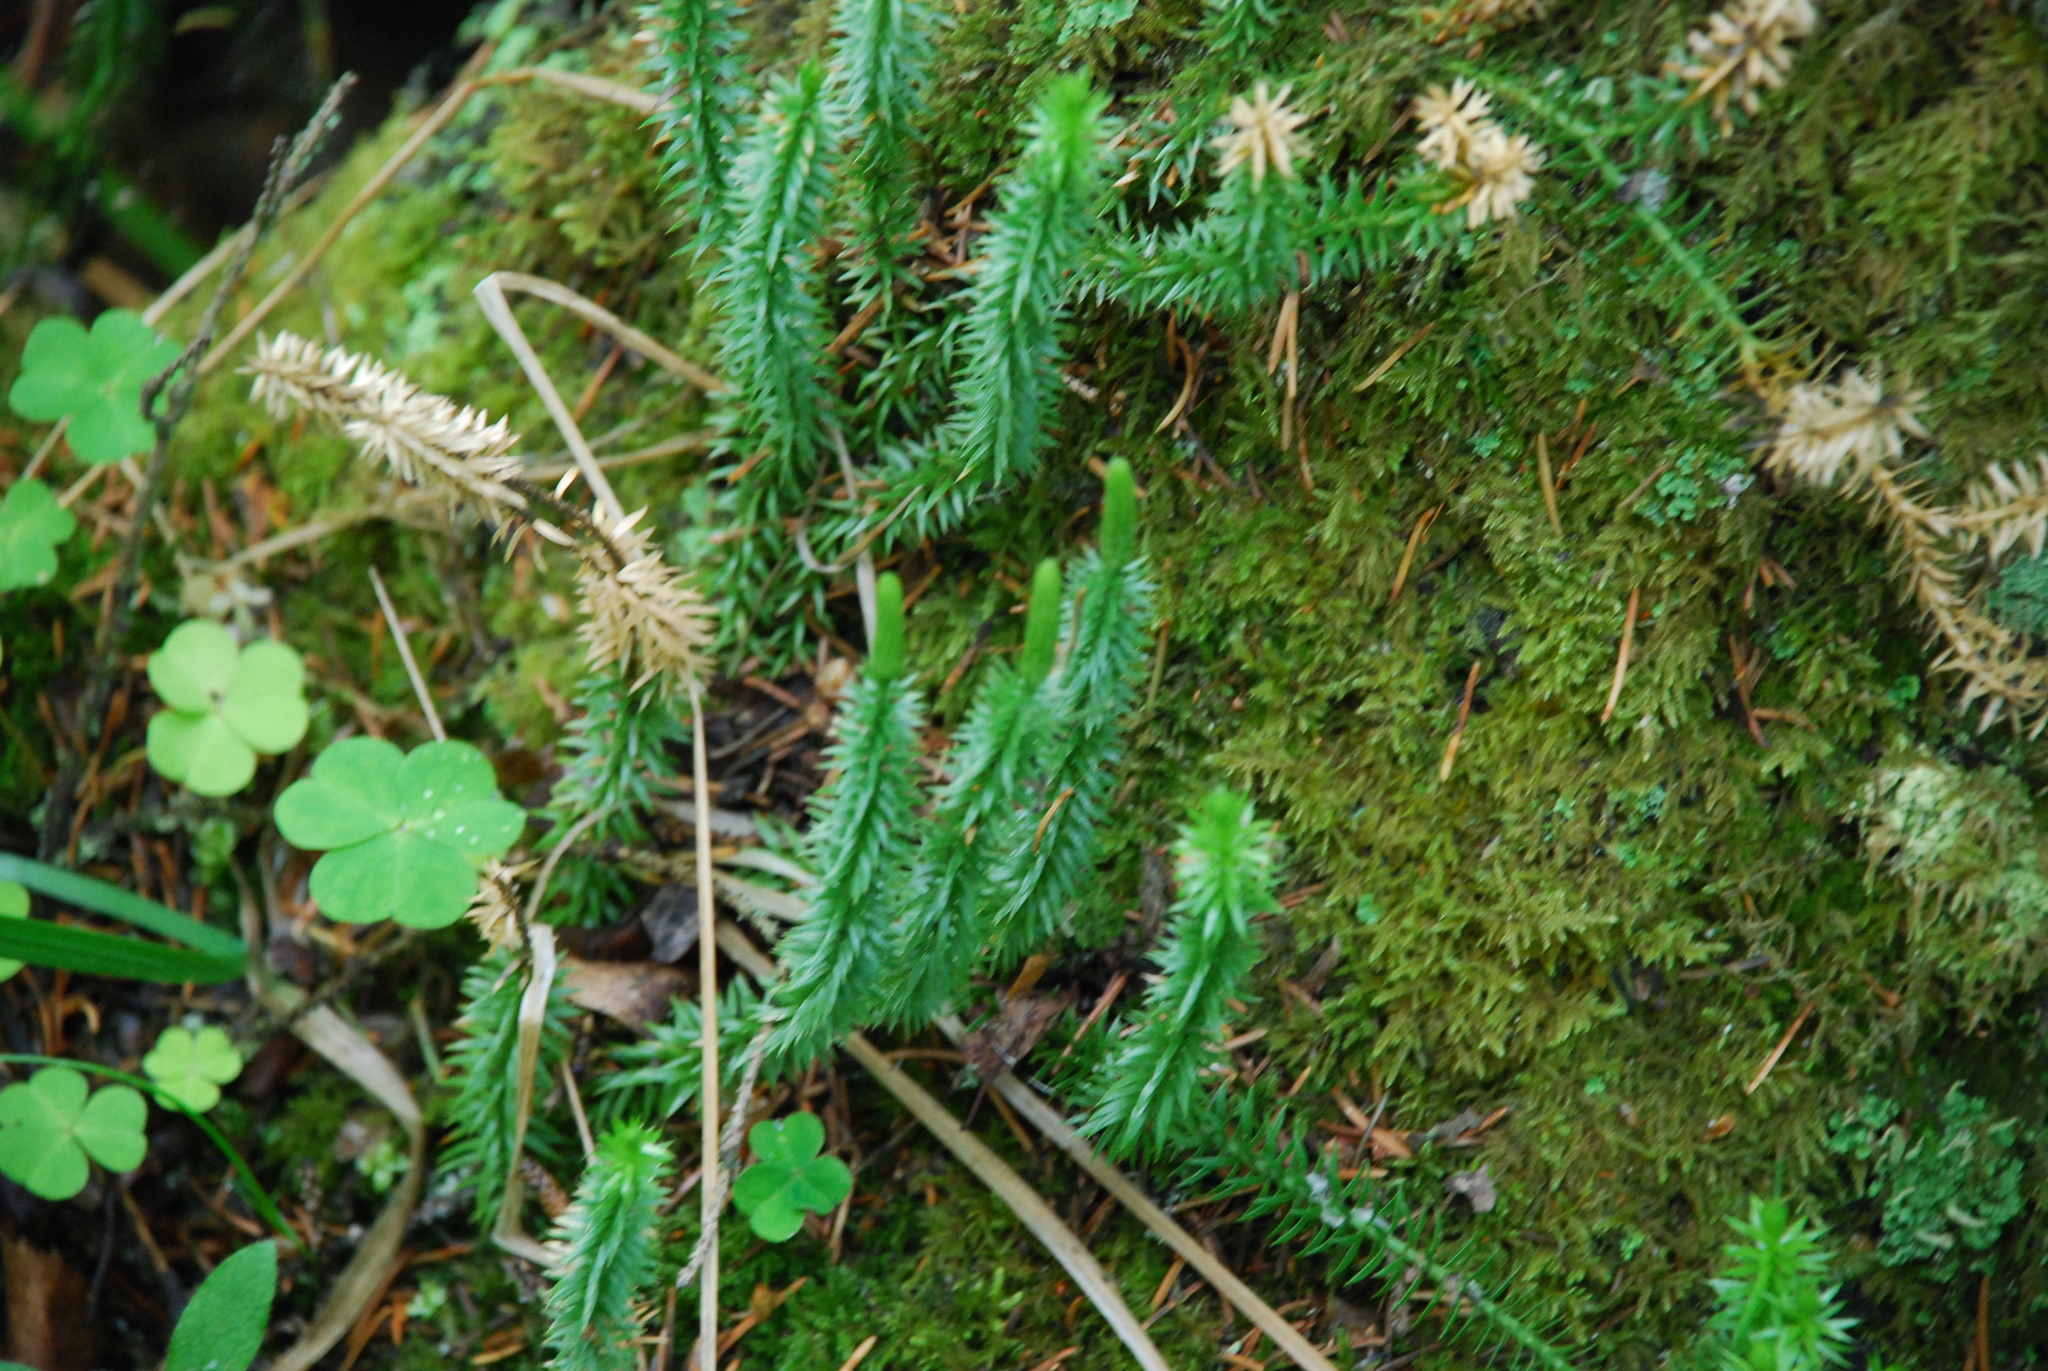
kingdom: Plantae
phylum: Tracheophyta
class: Lycopodiopsida
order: Lycopodiales
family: Lycopodiaceae
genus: Spinulum
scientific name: Spinulum annotinum
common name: Interrupted club-moss
